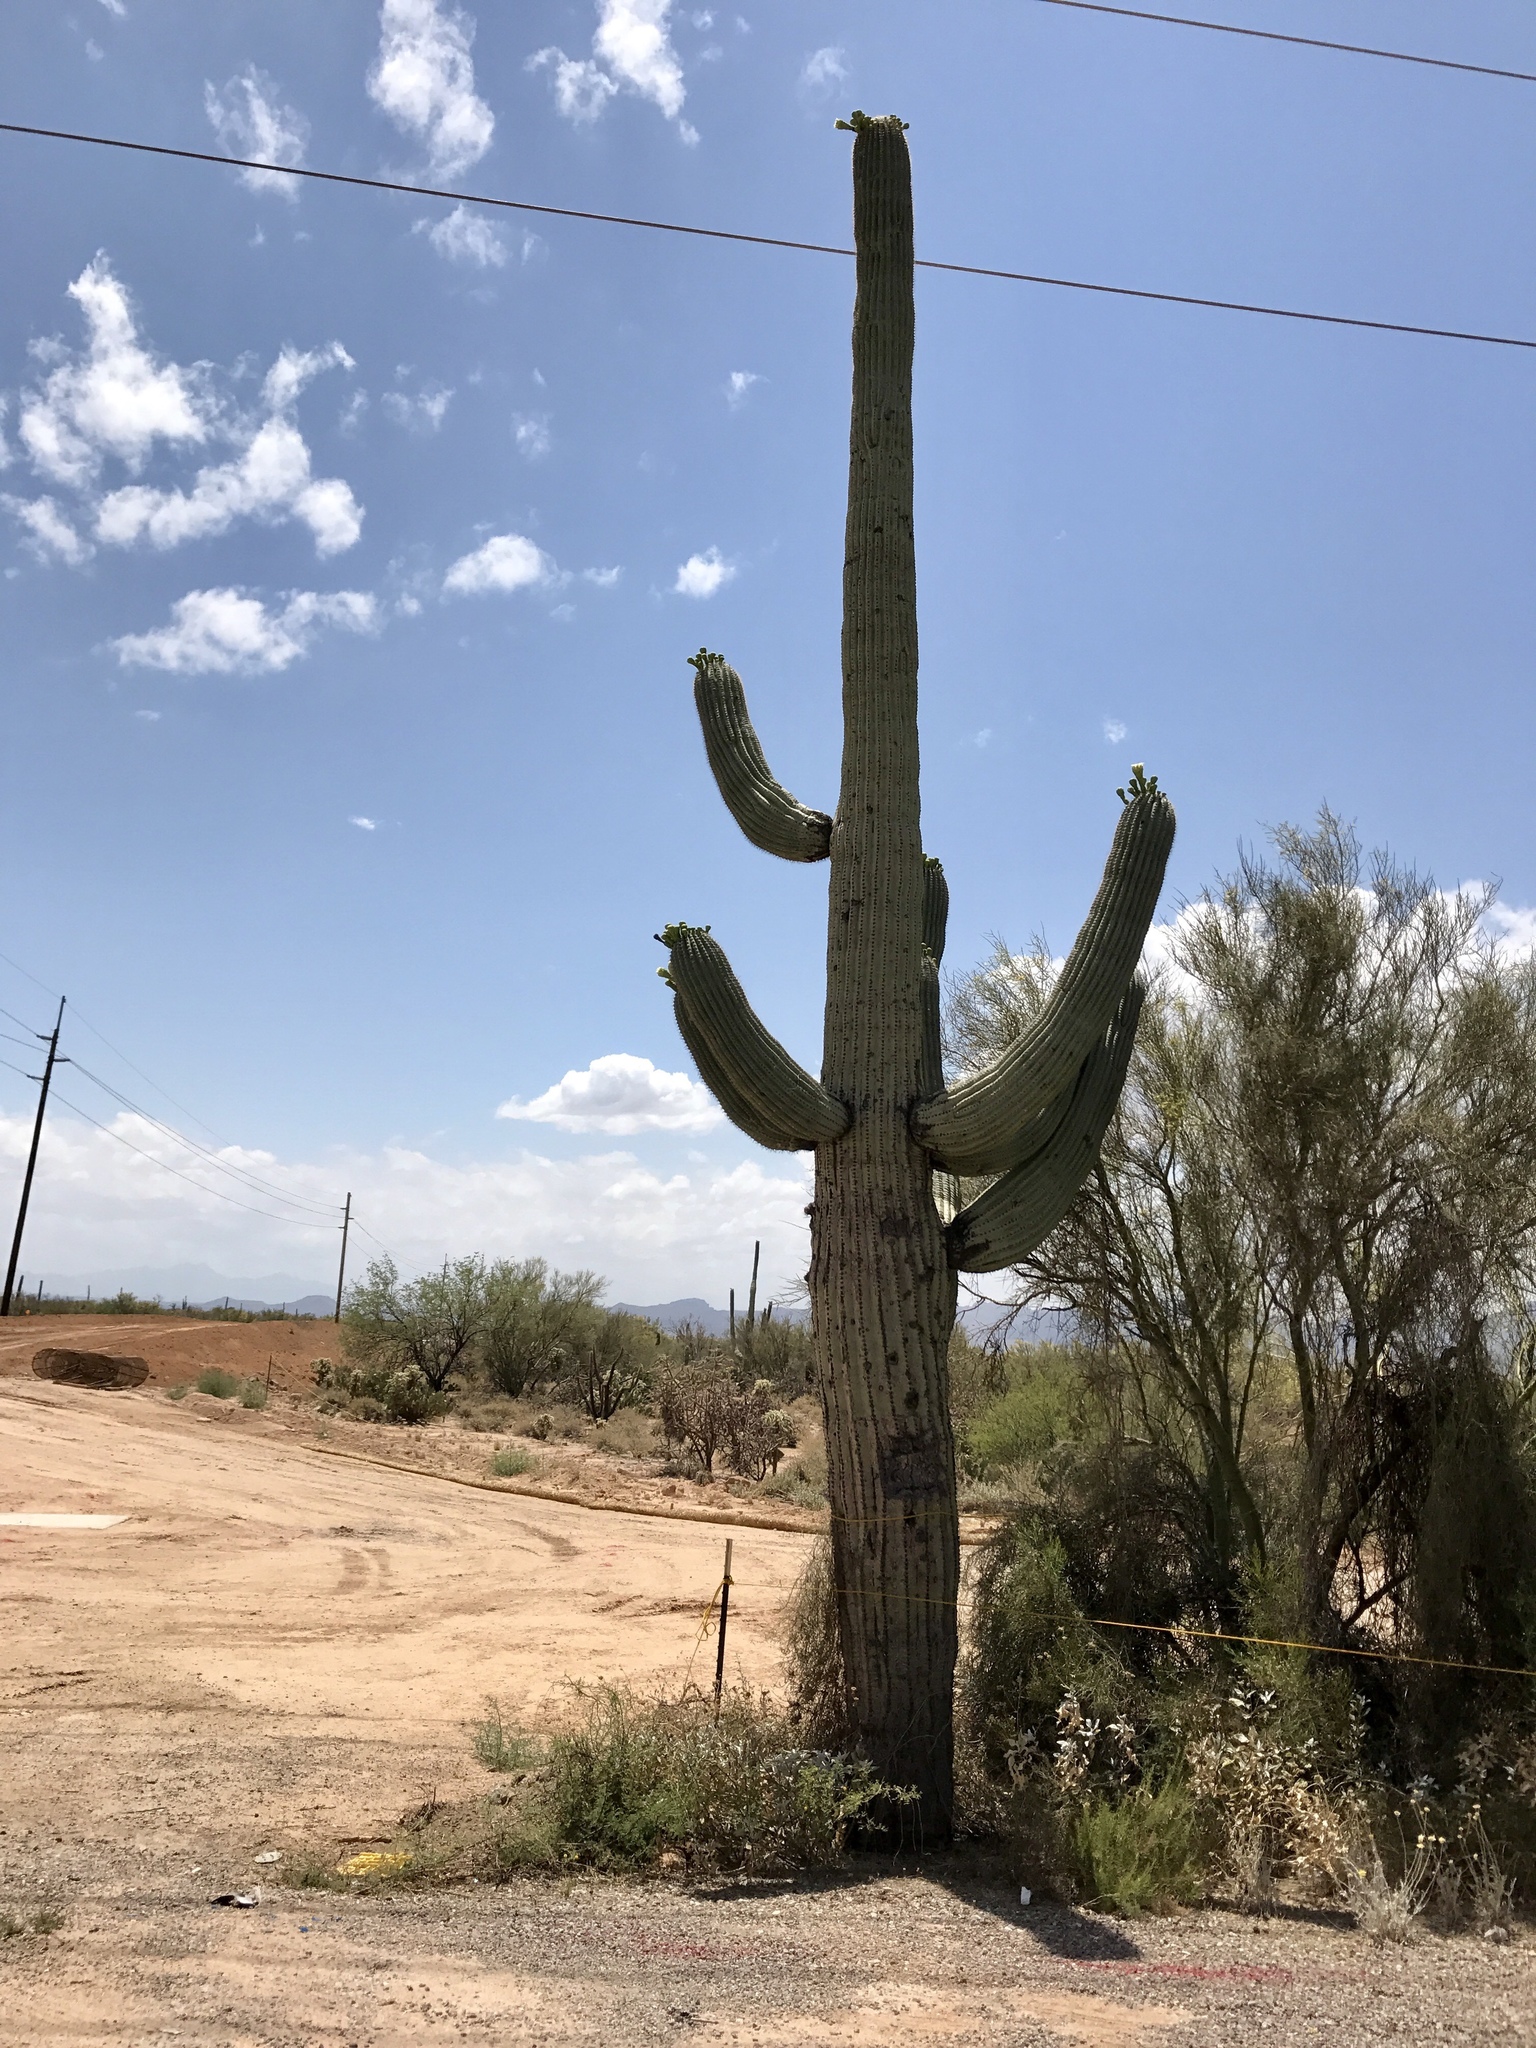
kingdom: Plantae
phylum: Tracheophyta
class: Magnoliopsida
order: Caryophyllales
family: Cactaceae
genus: Carnegiea
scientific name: Carnegiea gigantea
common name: Saguaro
